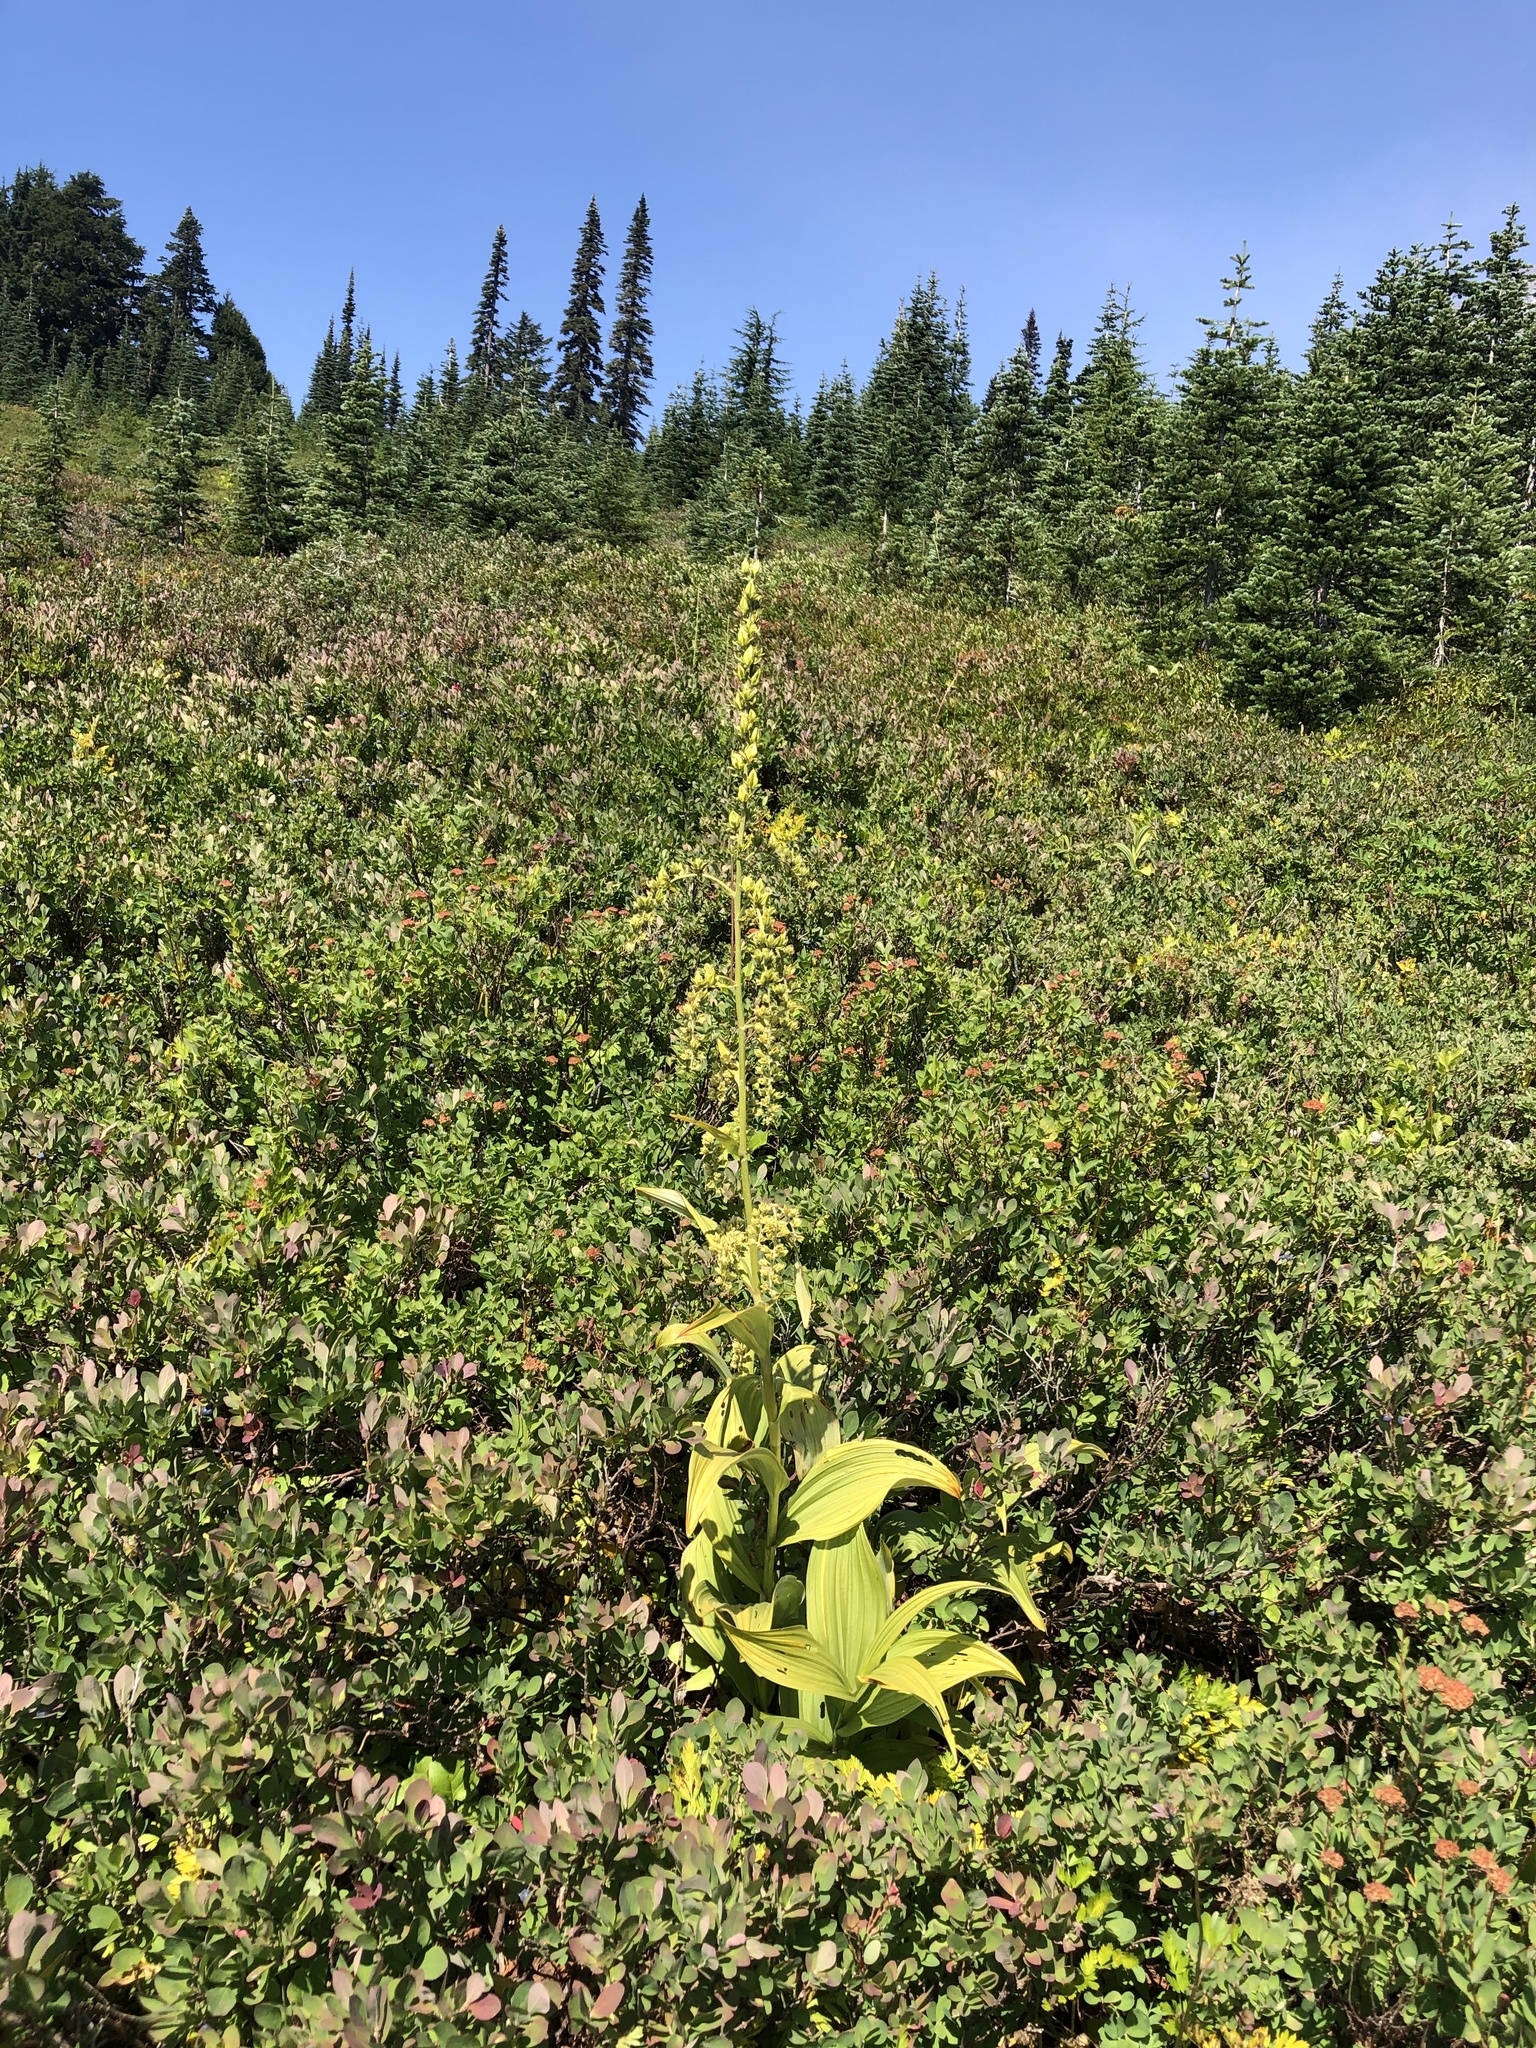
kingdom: Plantae
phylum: Tracheophyta
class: Liliopsida
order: Liliales
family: Melanthiaceae
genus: Veratrum
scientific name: Veratrum viride
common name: American false hellebore
